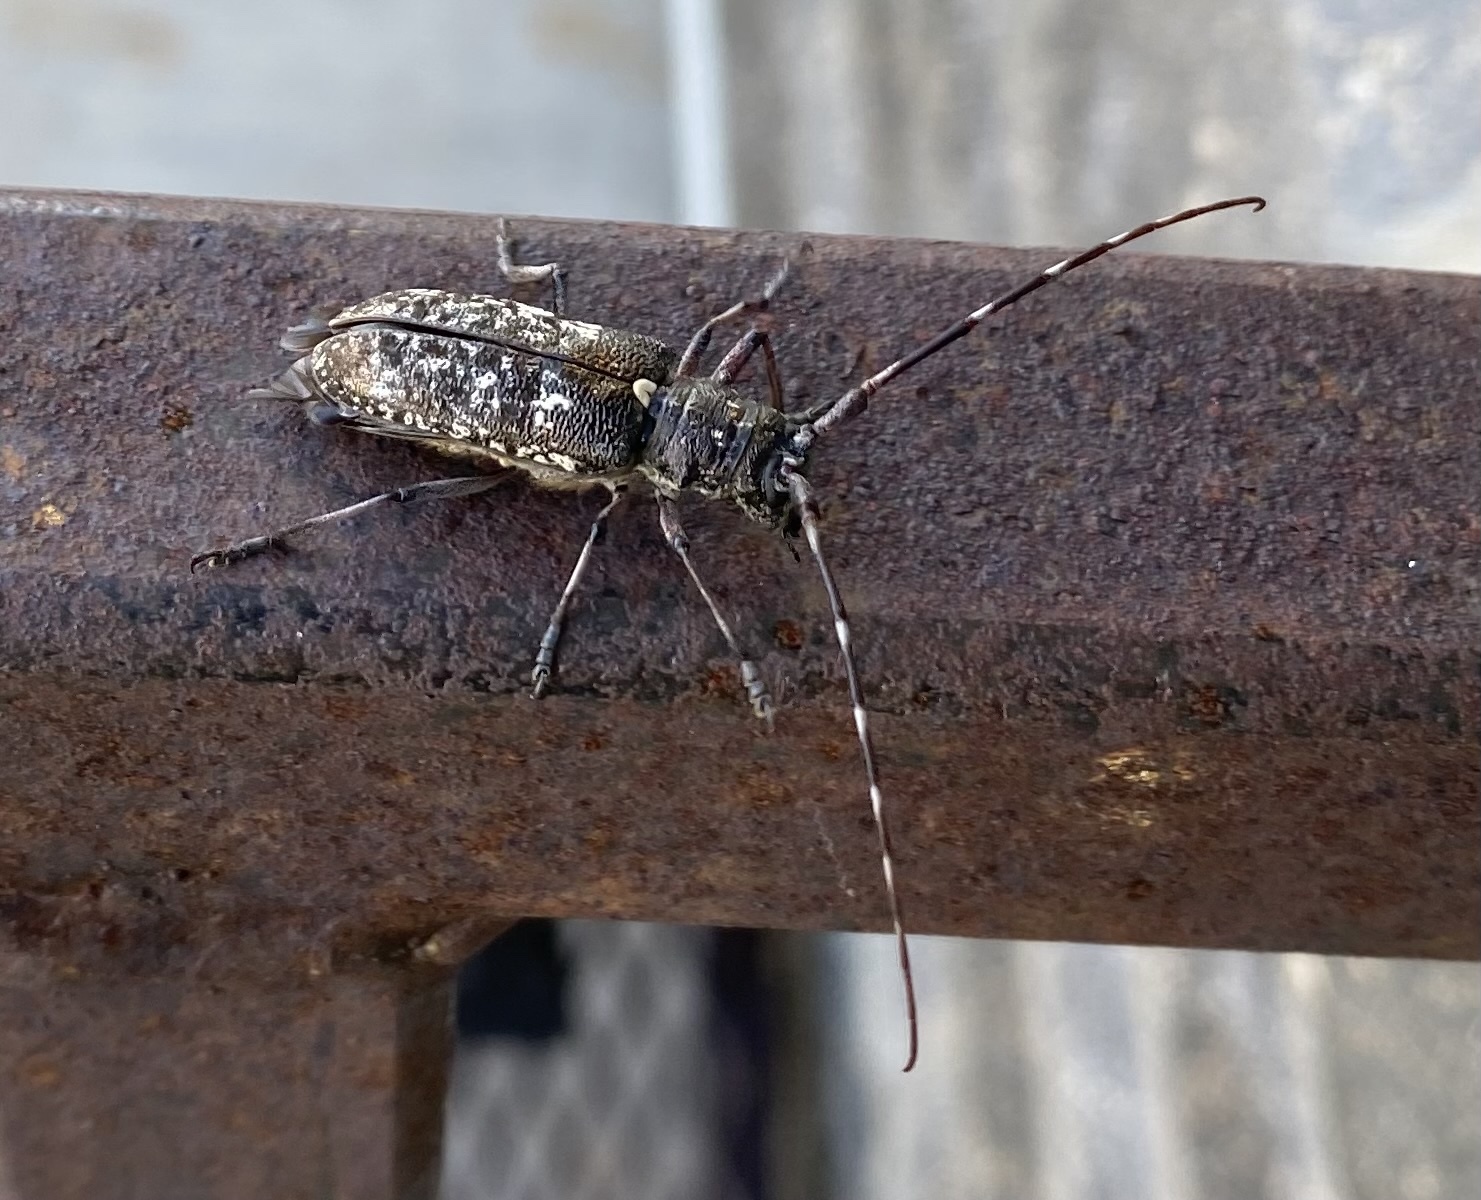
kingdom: Animalia
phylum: Arthropoda
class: Insecta
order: Coleoptera
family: Cerambycidae
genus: Monochamus
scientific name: Monochamus scutellatus
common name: White-spotted sawyer beetle
